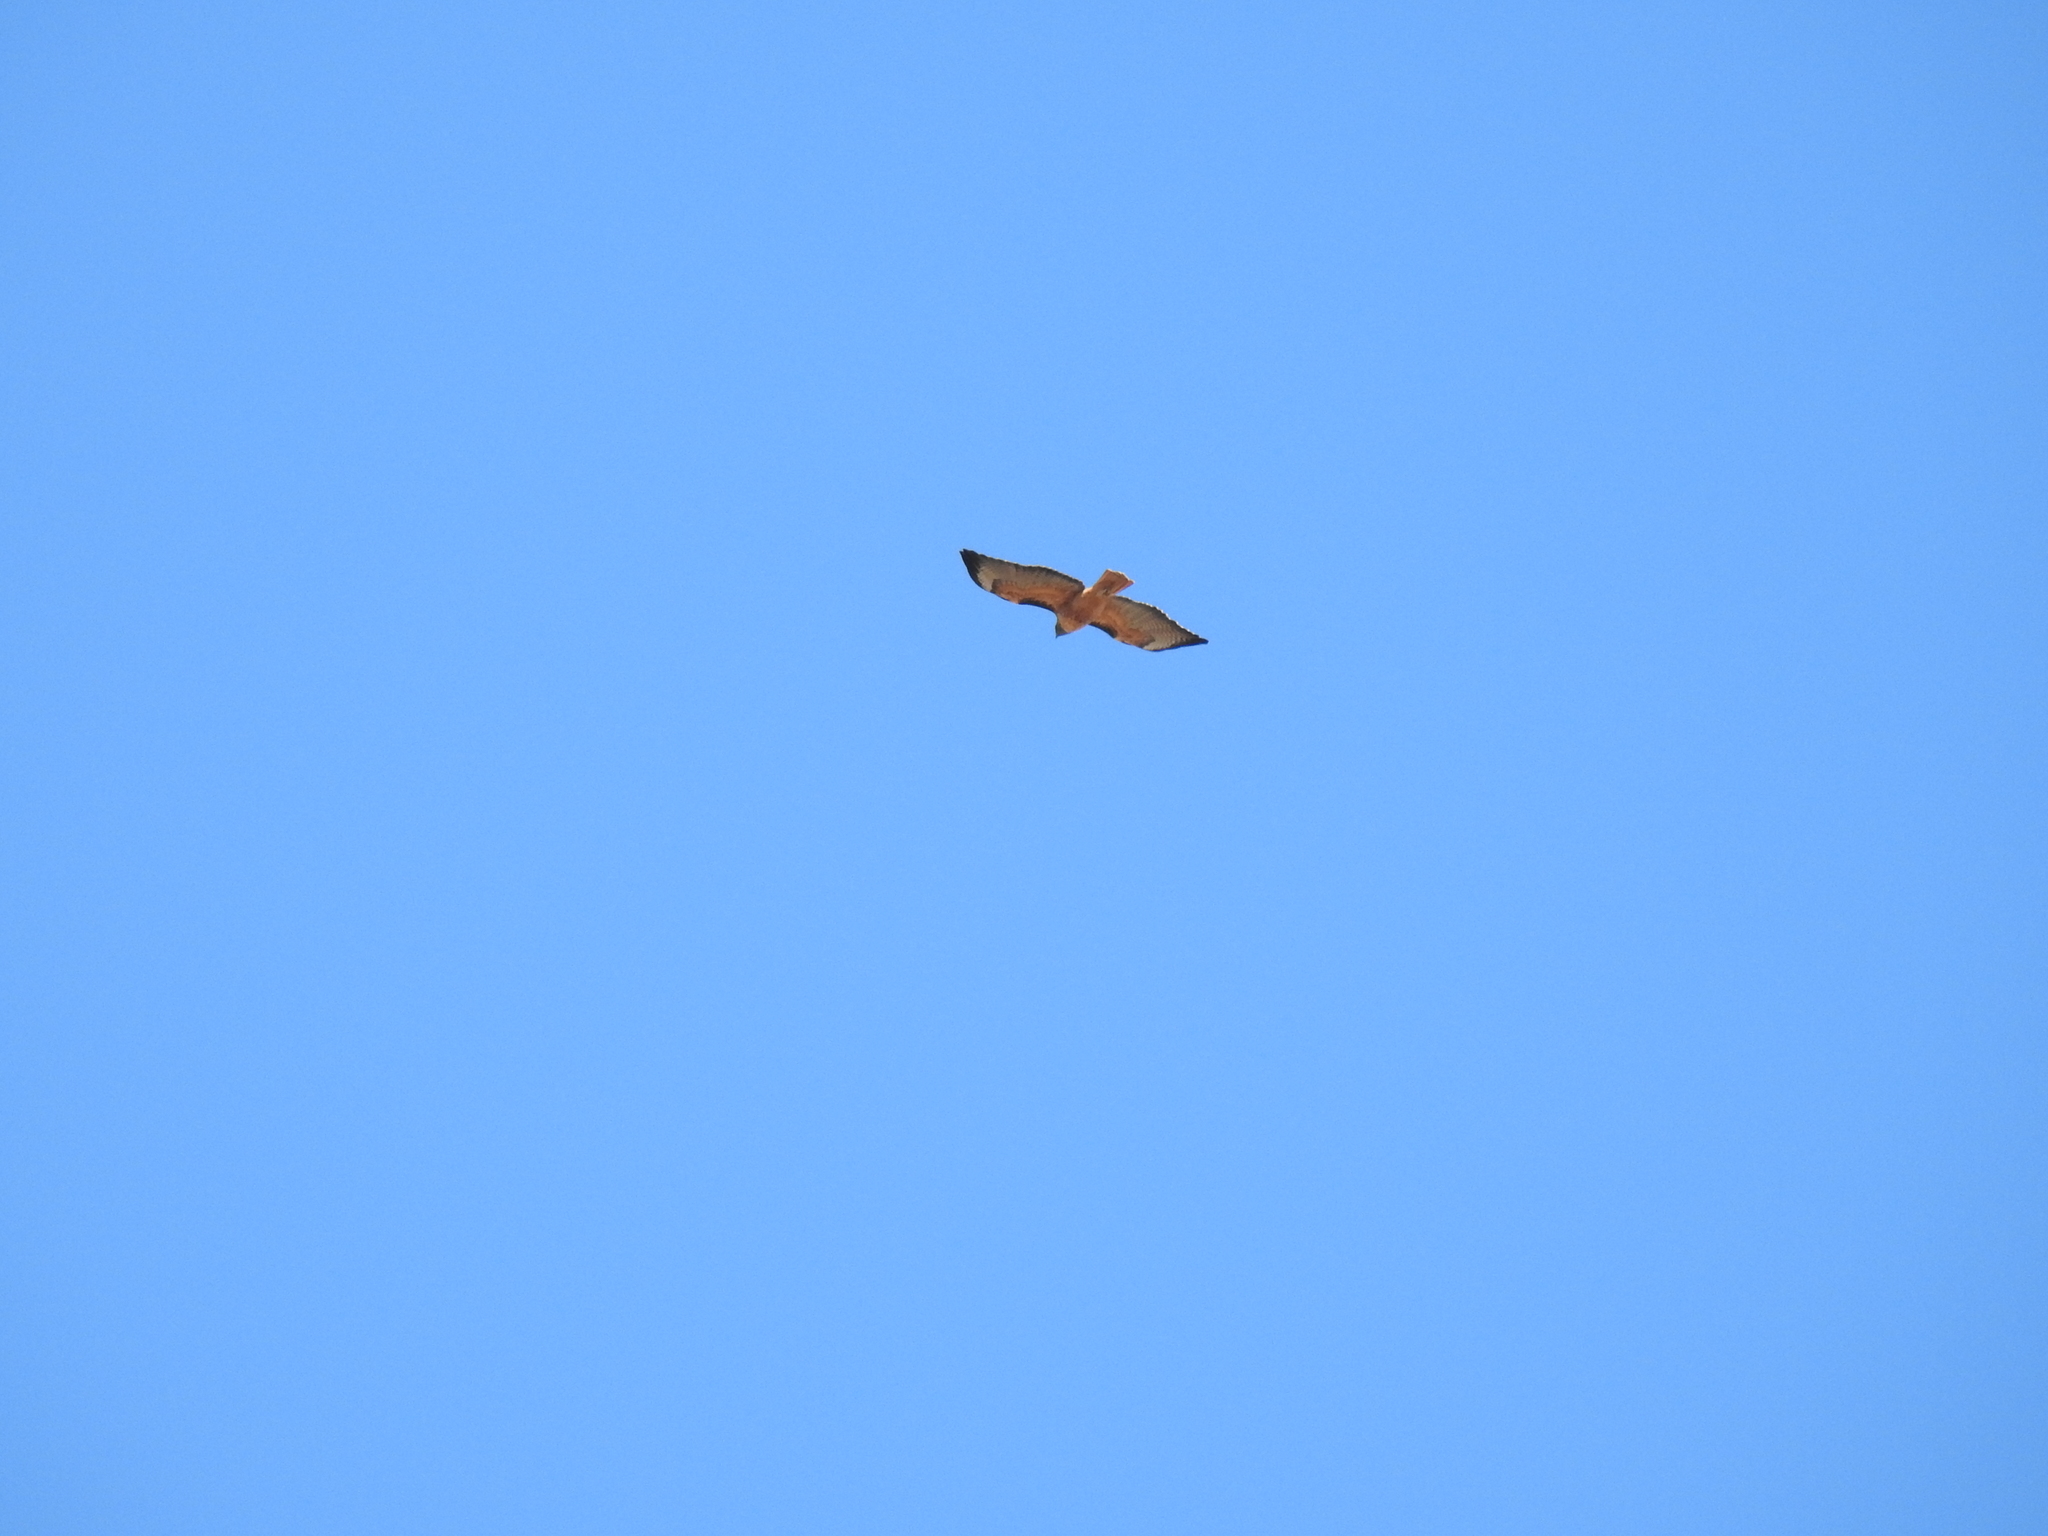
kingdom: Animalia
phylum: Chordata
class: Aves
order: Accipitriformes
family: Accipitridae
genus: Buteo
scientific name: Buteo jamaicensis
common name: Red-tailed hawk
